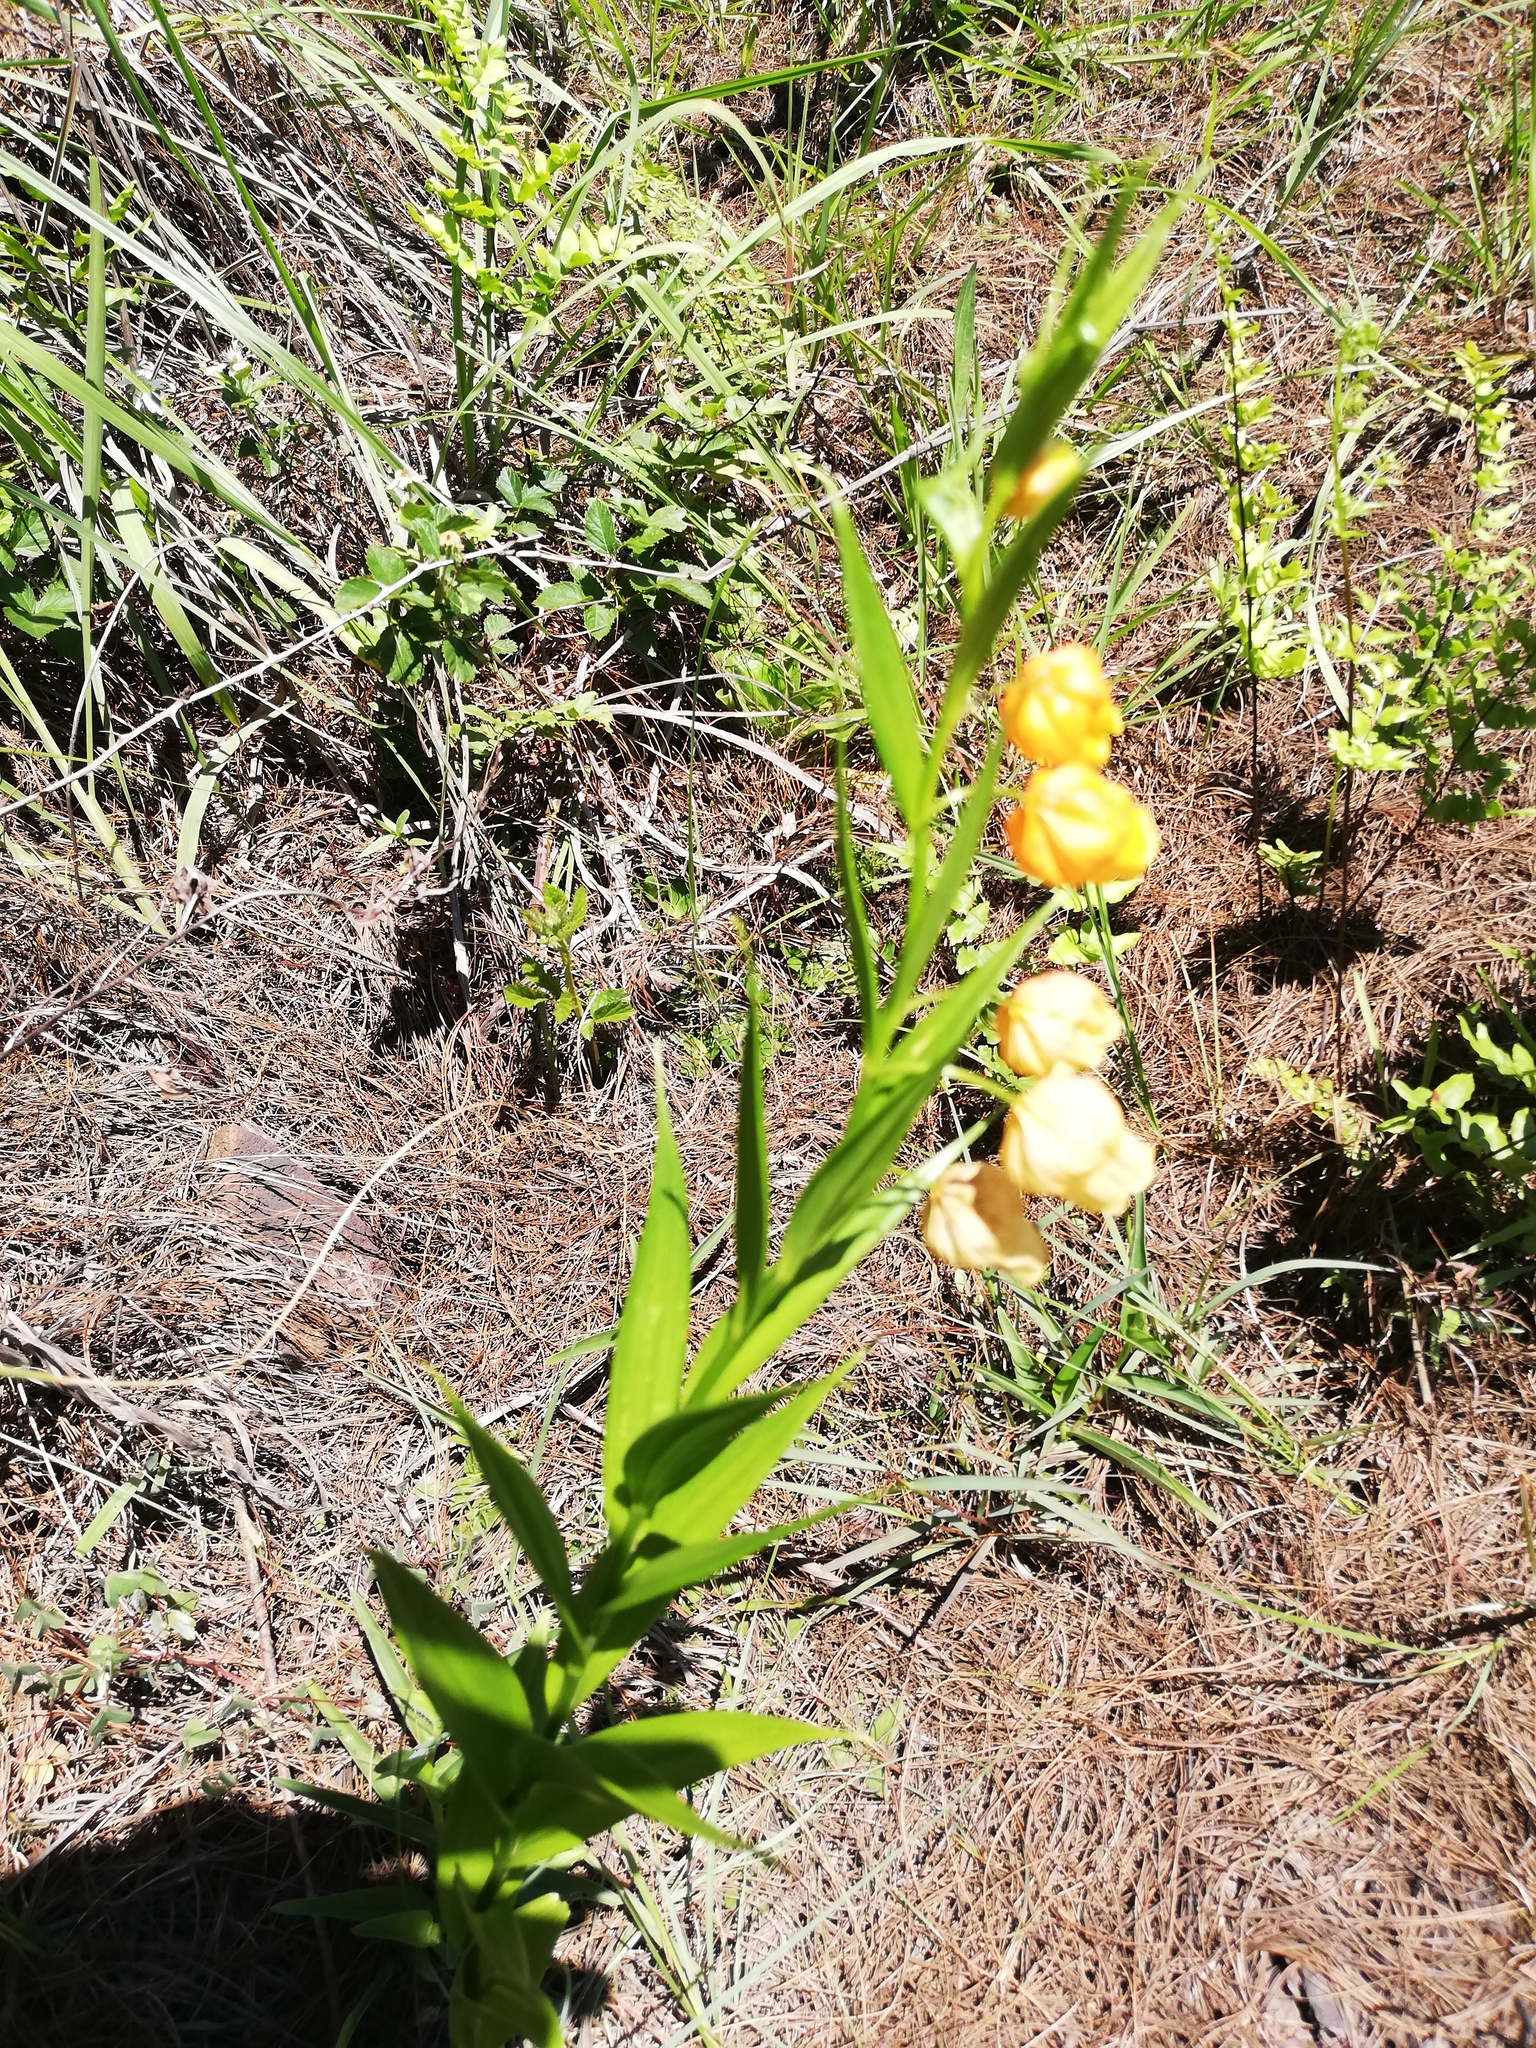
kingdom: Plantae
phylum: Tracheophyta
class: Liliopsida
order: Liliales
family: Colchicaceae
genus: Sandersonia
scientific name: Sandersonia aurantiaca
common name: Chinese-lantern-lily
